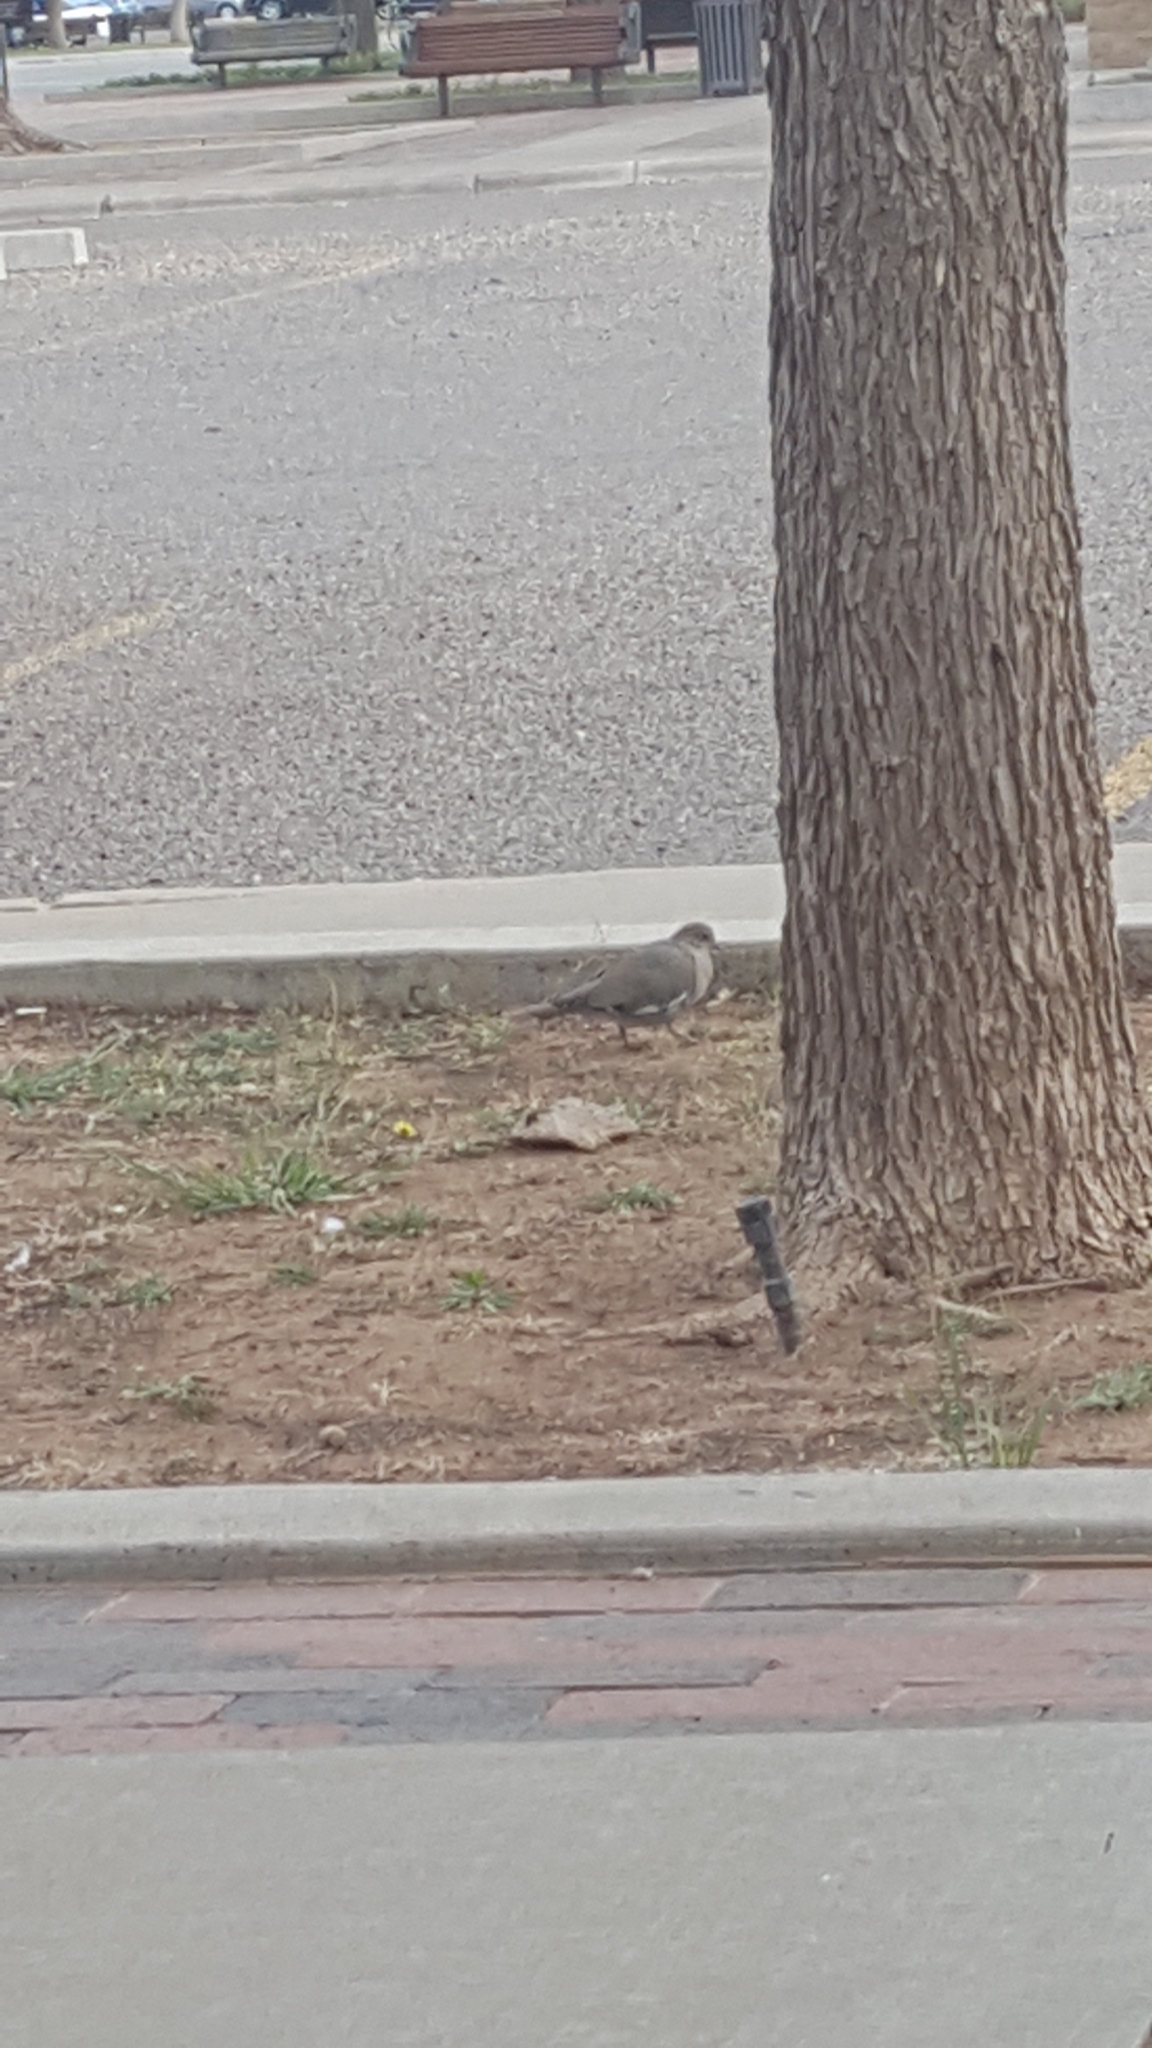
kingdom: Animalia
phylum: Chordata
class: Aves
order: Columbiformes
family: Columbidae
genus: Zenaida
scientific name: Zenaida asiatica
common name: White-winged dove
